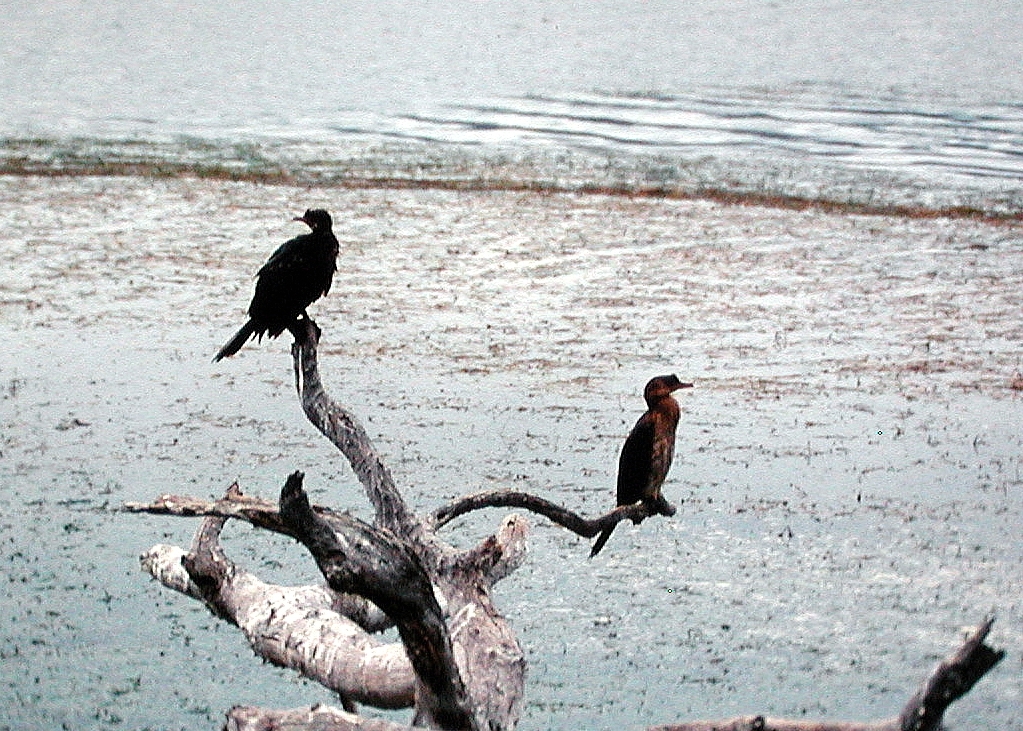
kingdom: Animalia
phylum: Chordata
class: Aves
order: Suliformes
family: Phalacrocoracidae
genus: Microcarbo
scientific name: Microcarbo africanus
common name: Long-tailed cormorant
